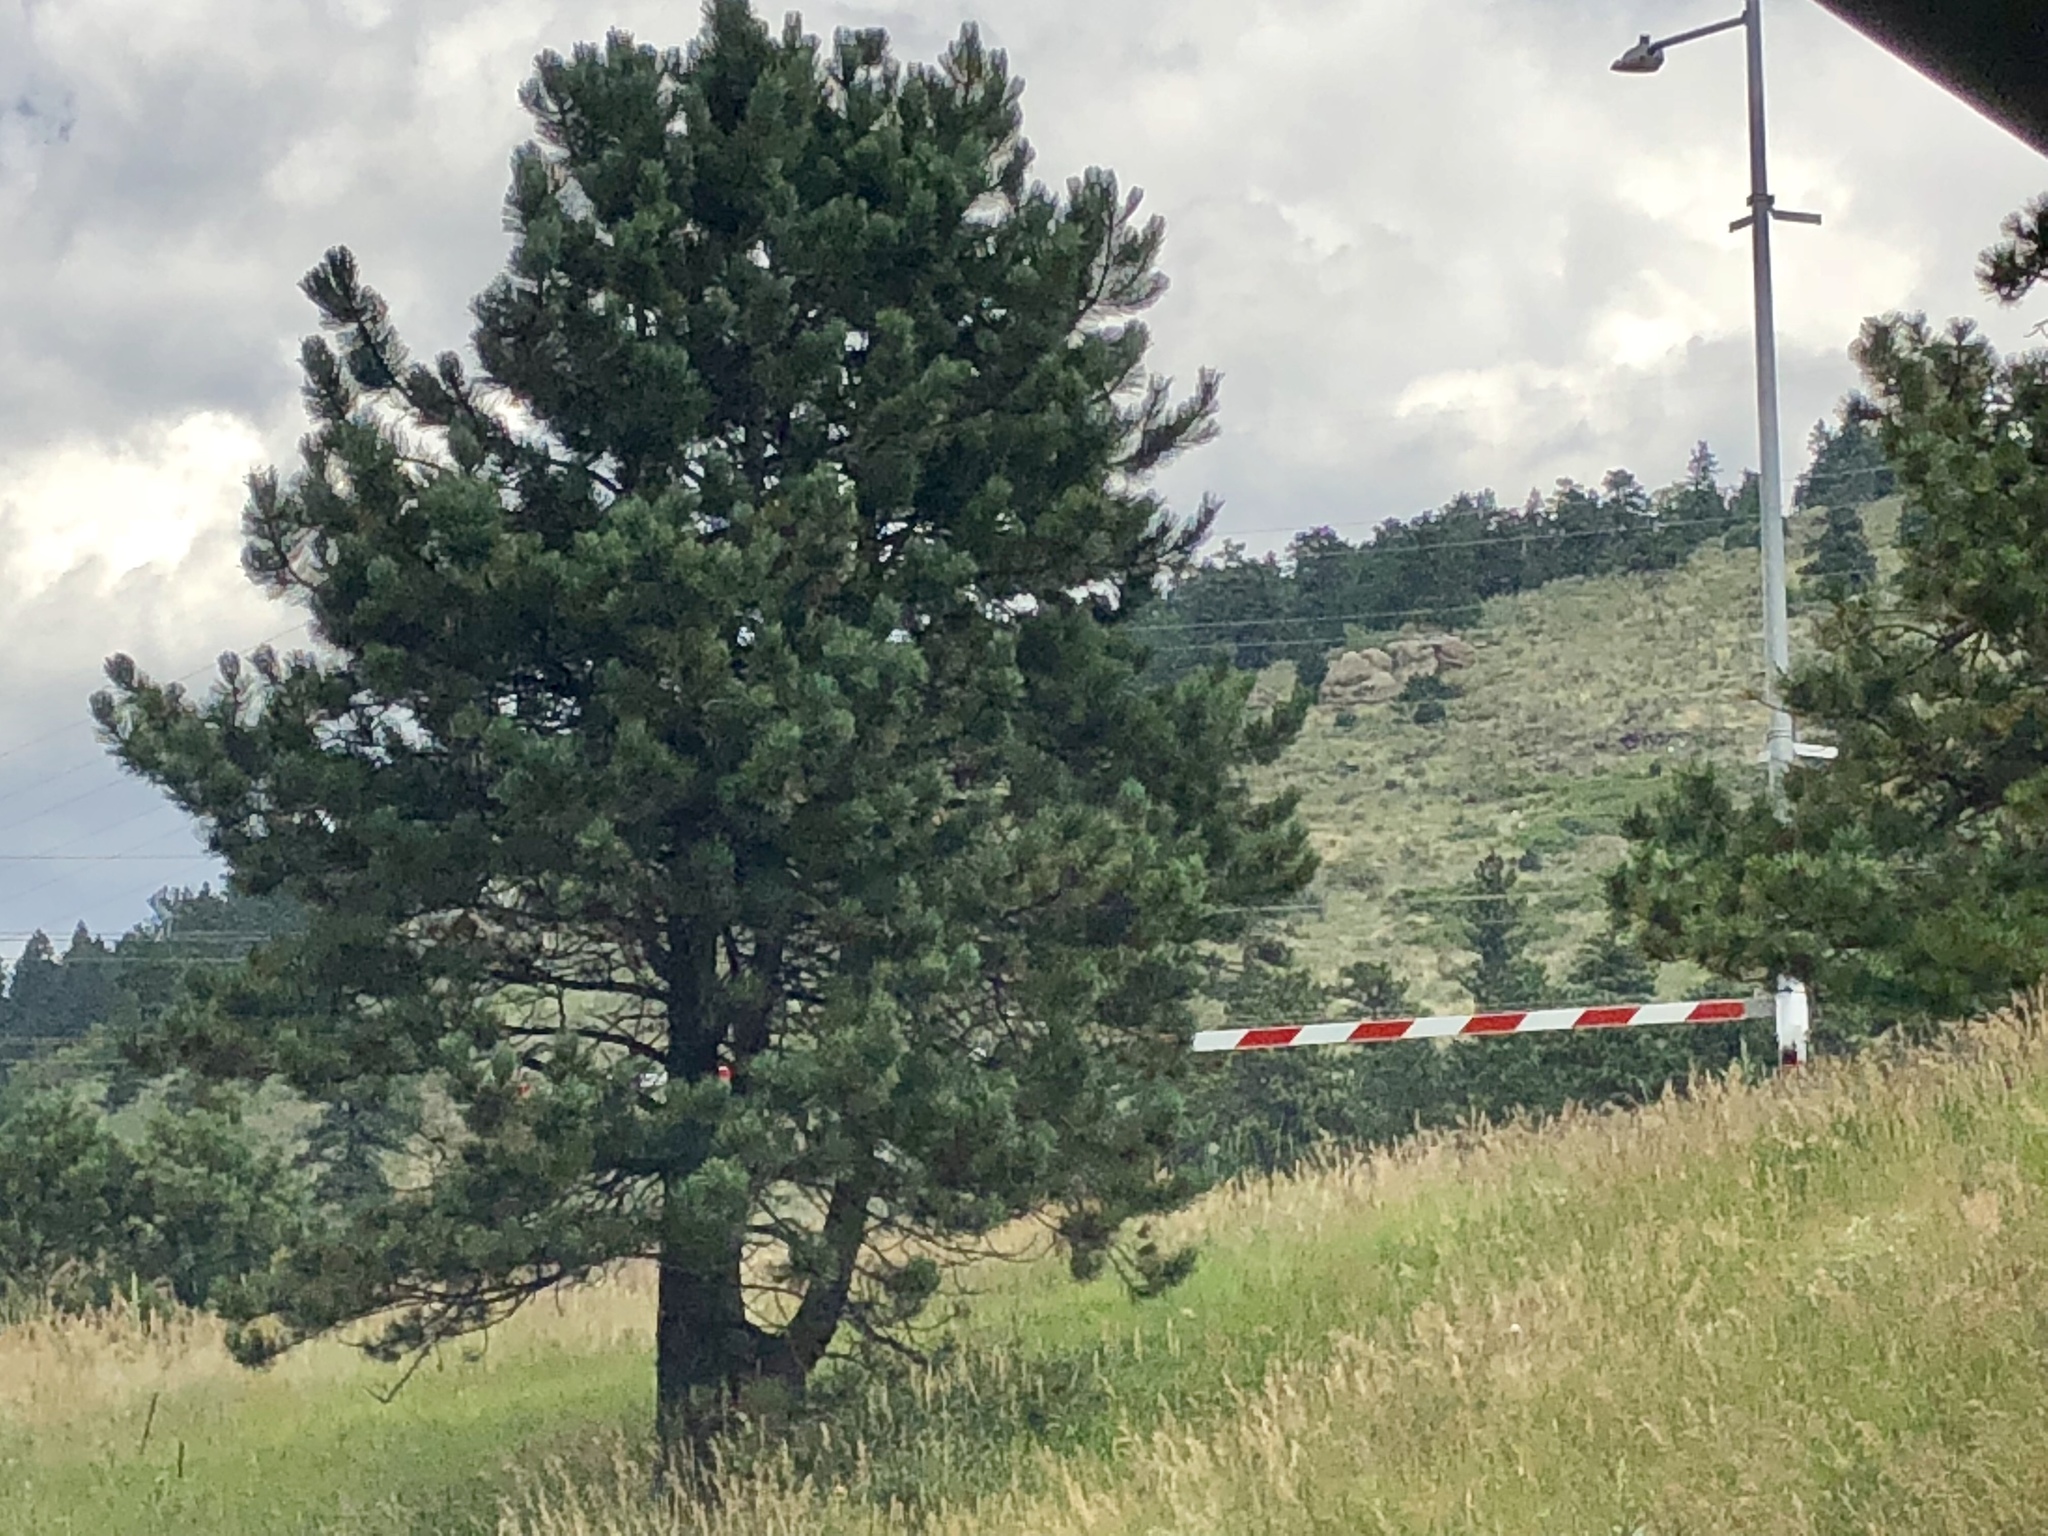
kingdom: Plantae
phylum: Tracheophyta
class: Pinopsida
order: Pinales
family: Pinaceae
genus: Pinus
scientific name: Pinus ponderosa
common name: Western yellow-pine
